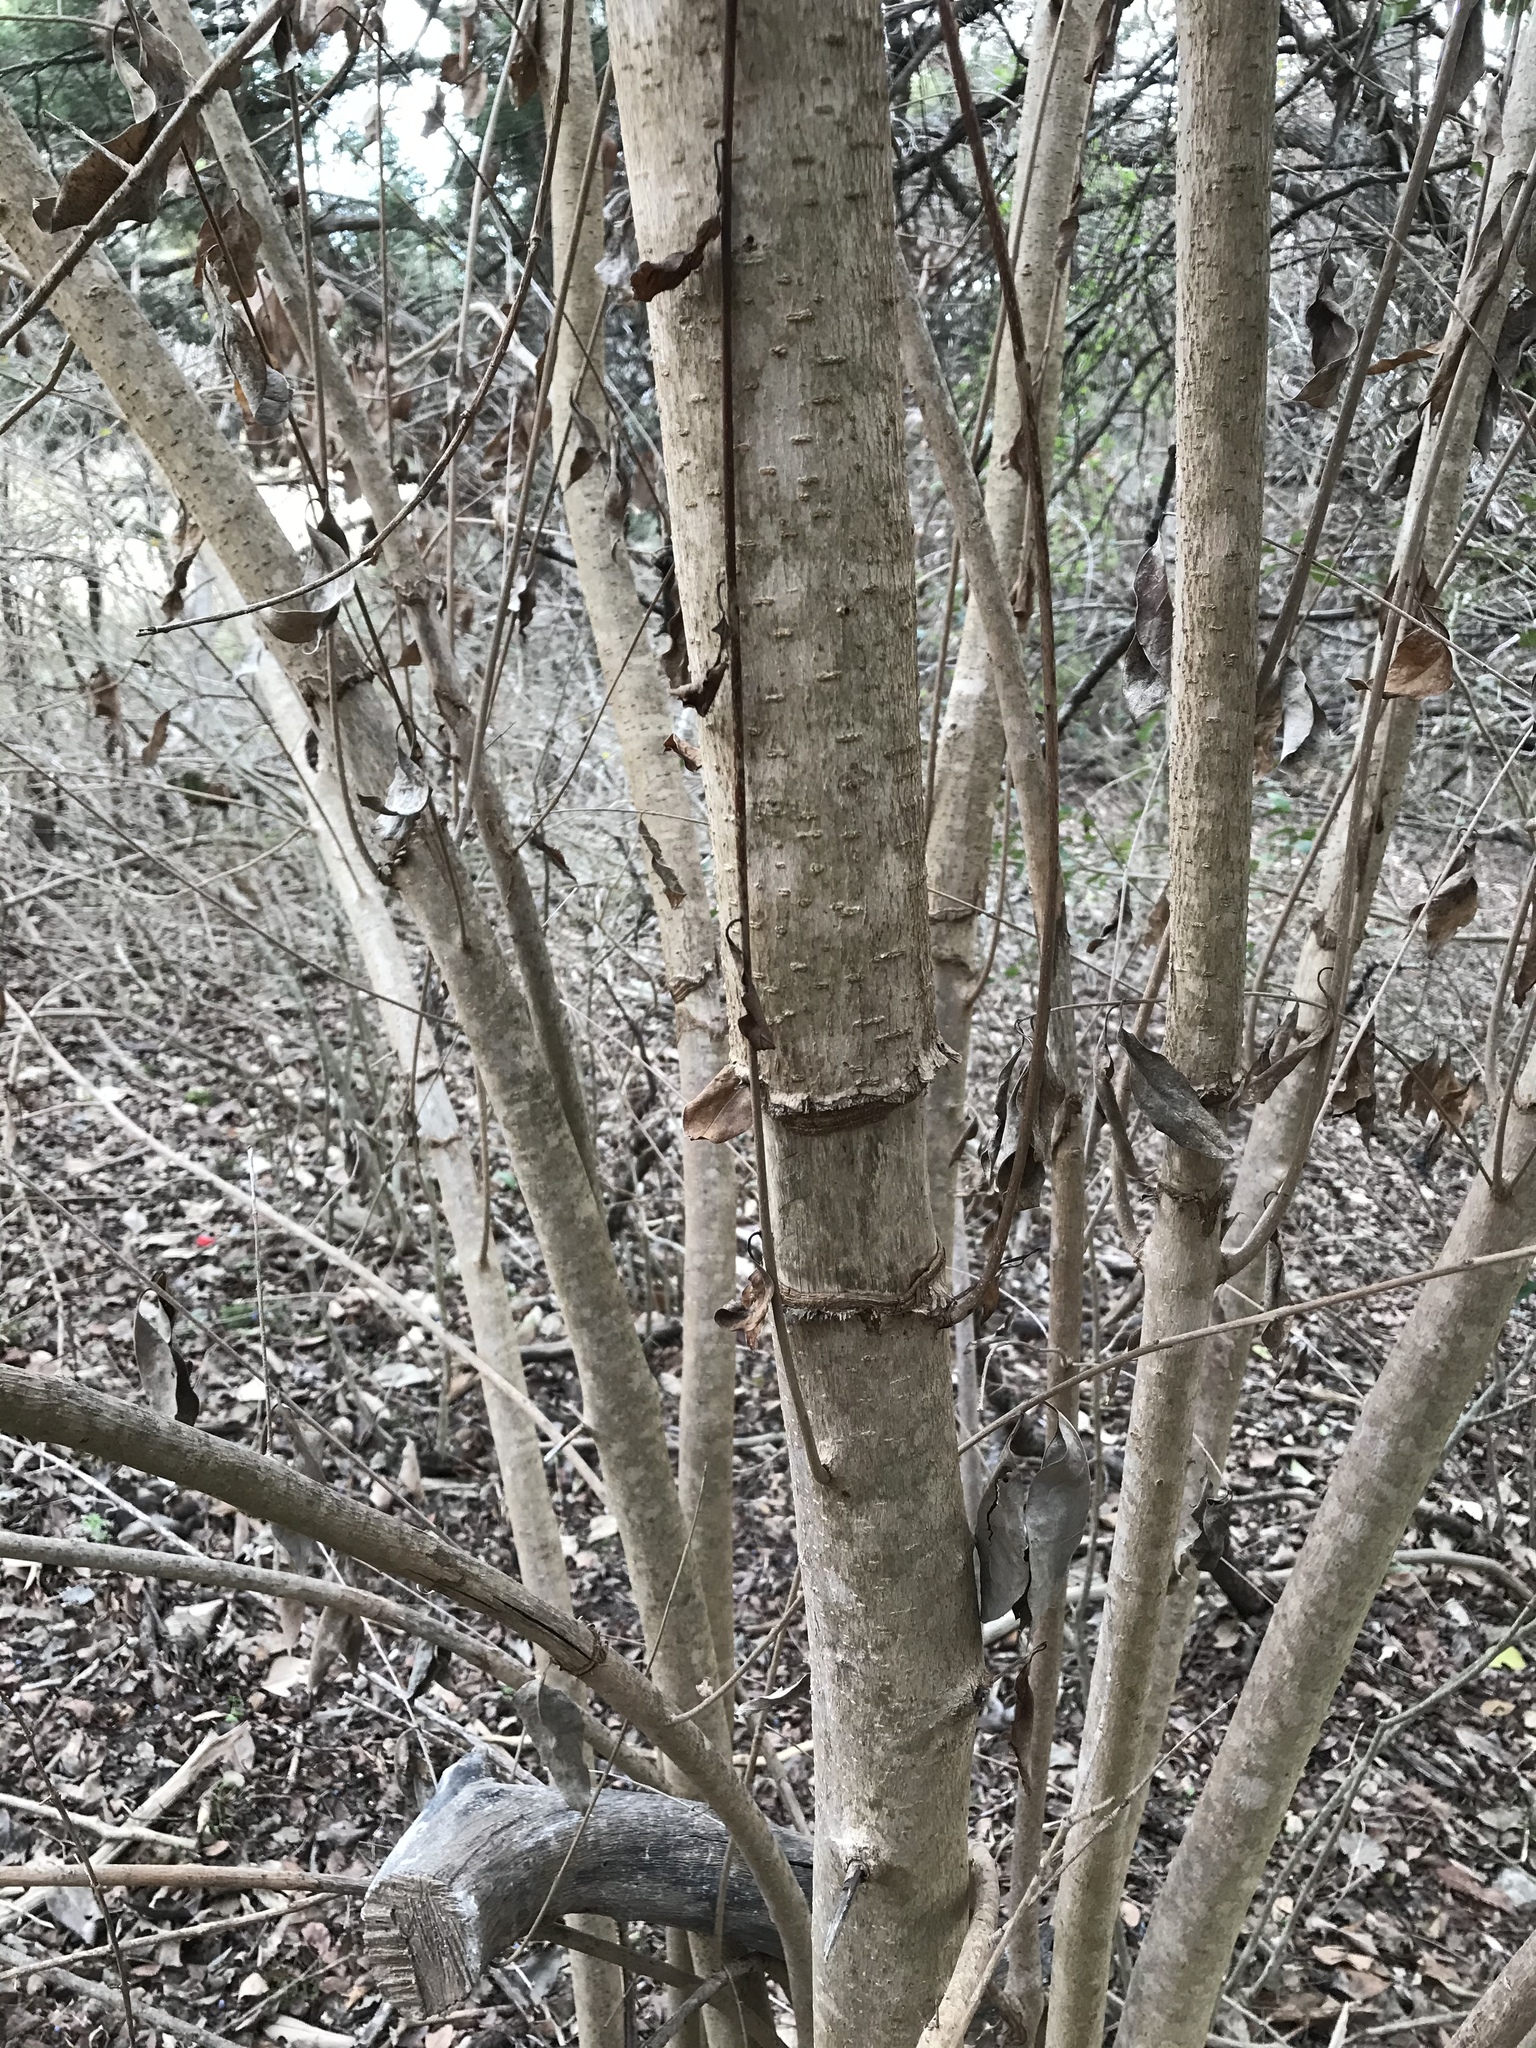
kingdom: Plantae
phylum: Tracheophyta
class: Magnoliopsida
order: Lamiales
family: Oleaceae
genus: Ligustrum
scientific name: Ligustrum lucidum
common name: Glossy privet
